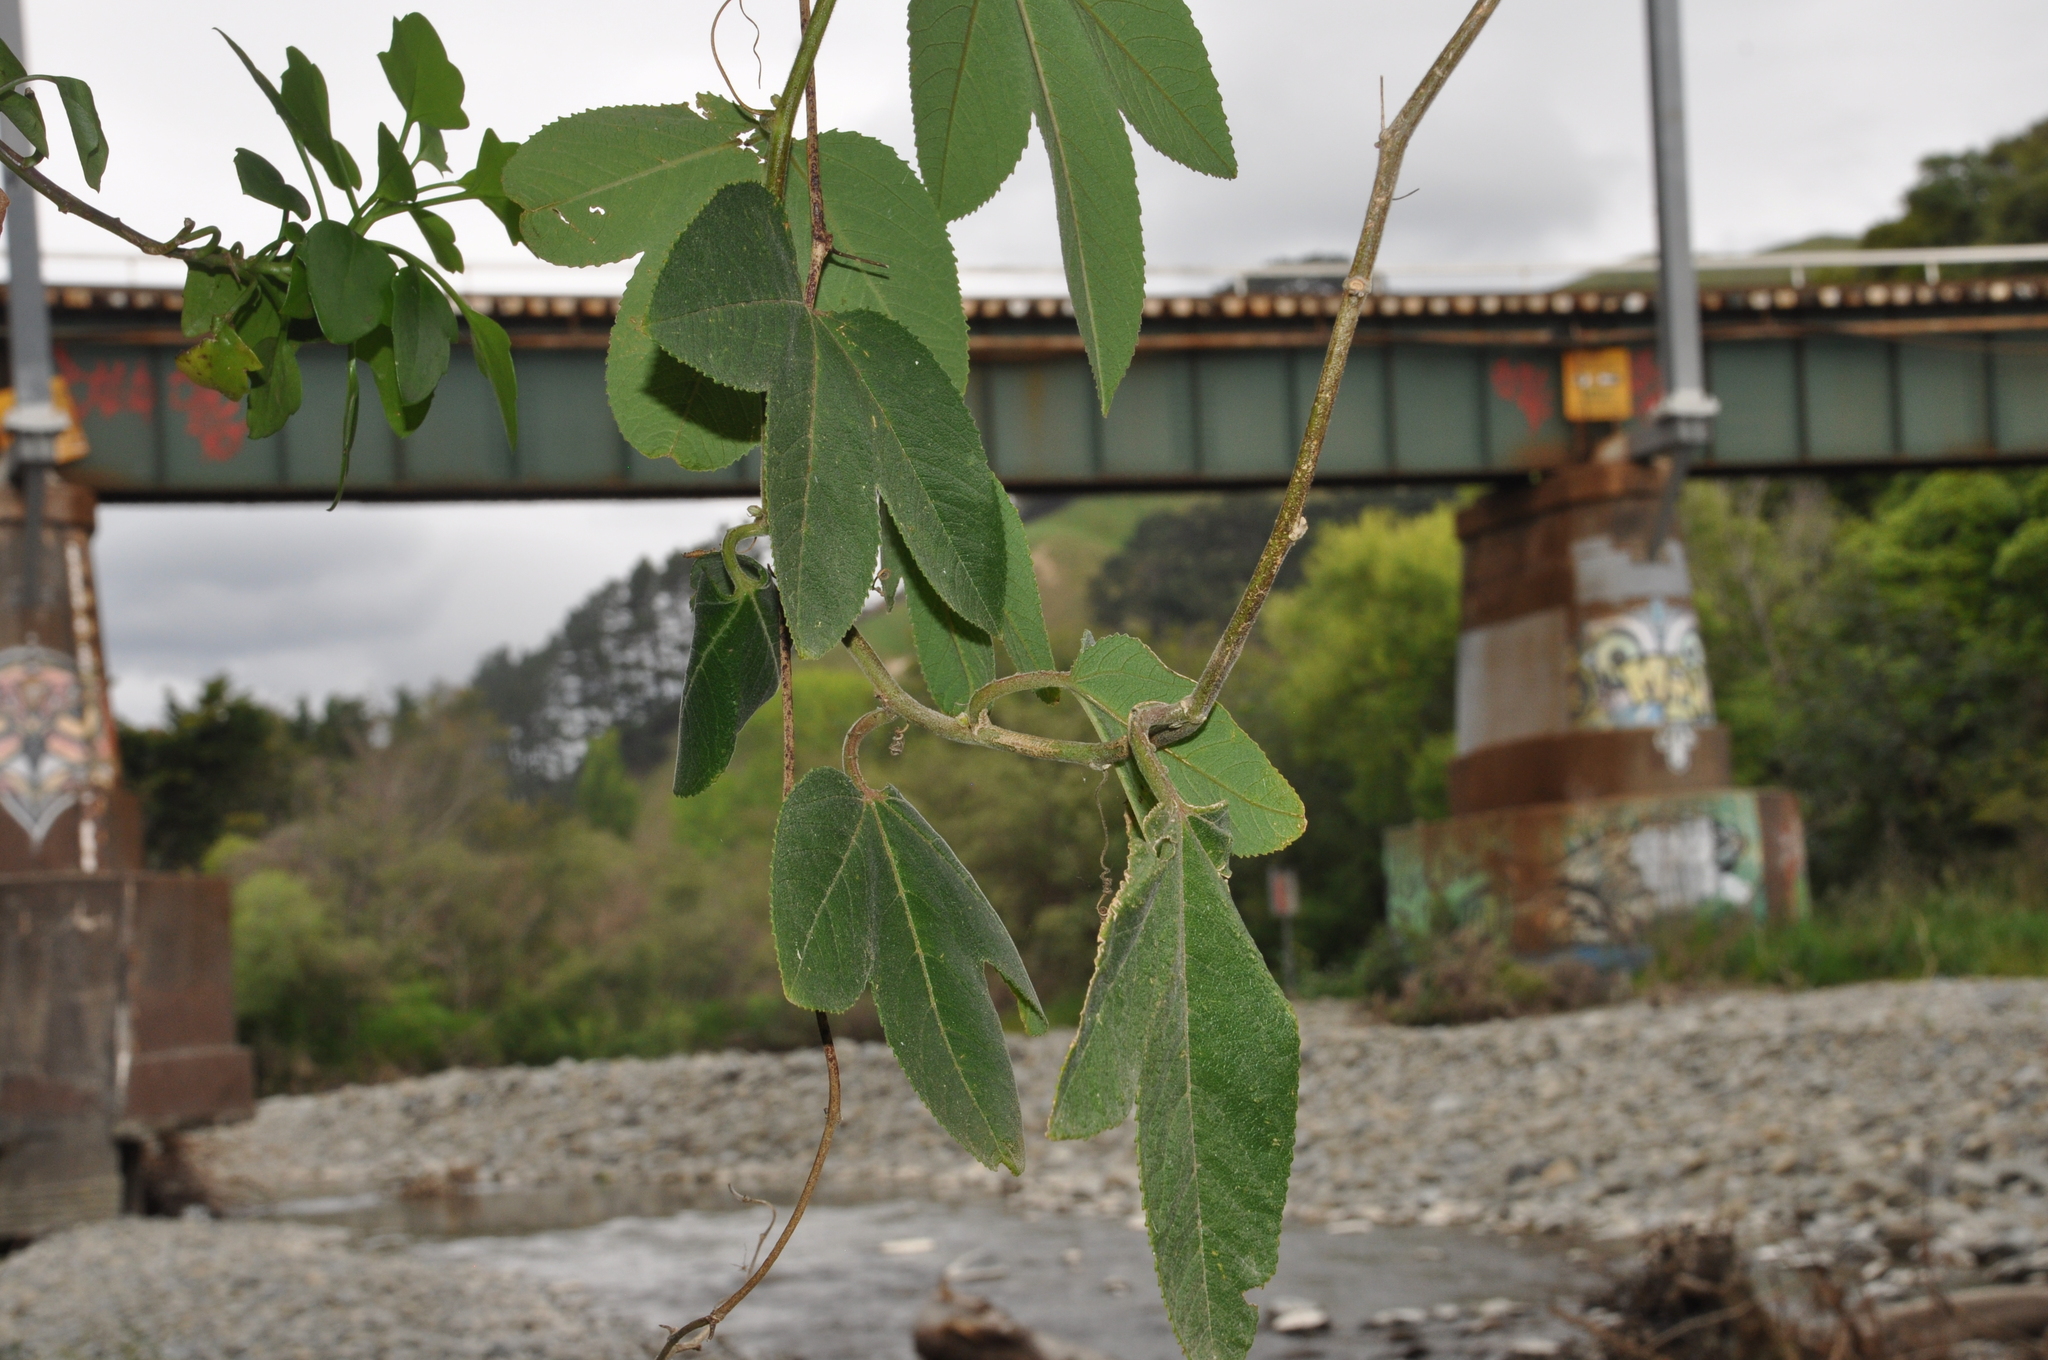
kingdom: Plantae
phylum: Tracheophyta
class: Magnoliopsida
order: Malpighiales
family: Passifloraceae
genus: Passiflora
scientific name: Passiflora tripartita
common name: Banana poka
